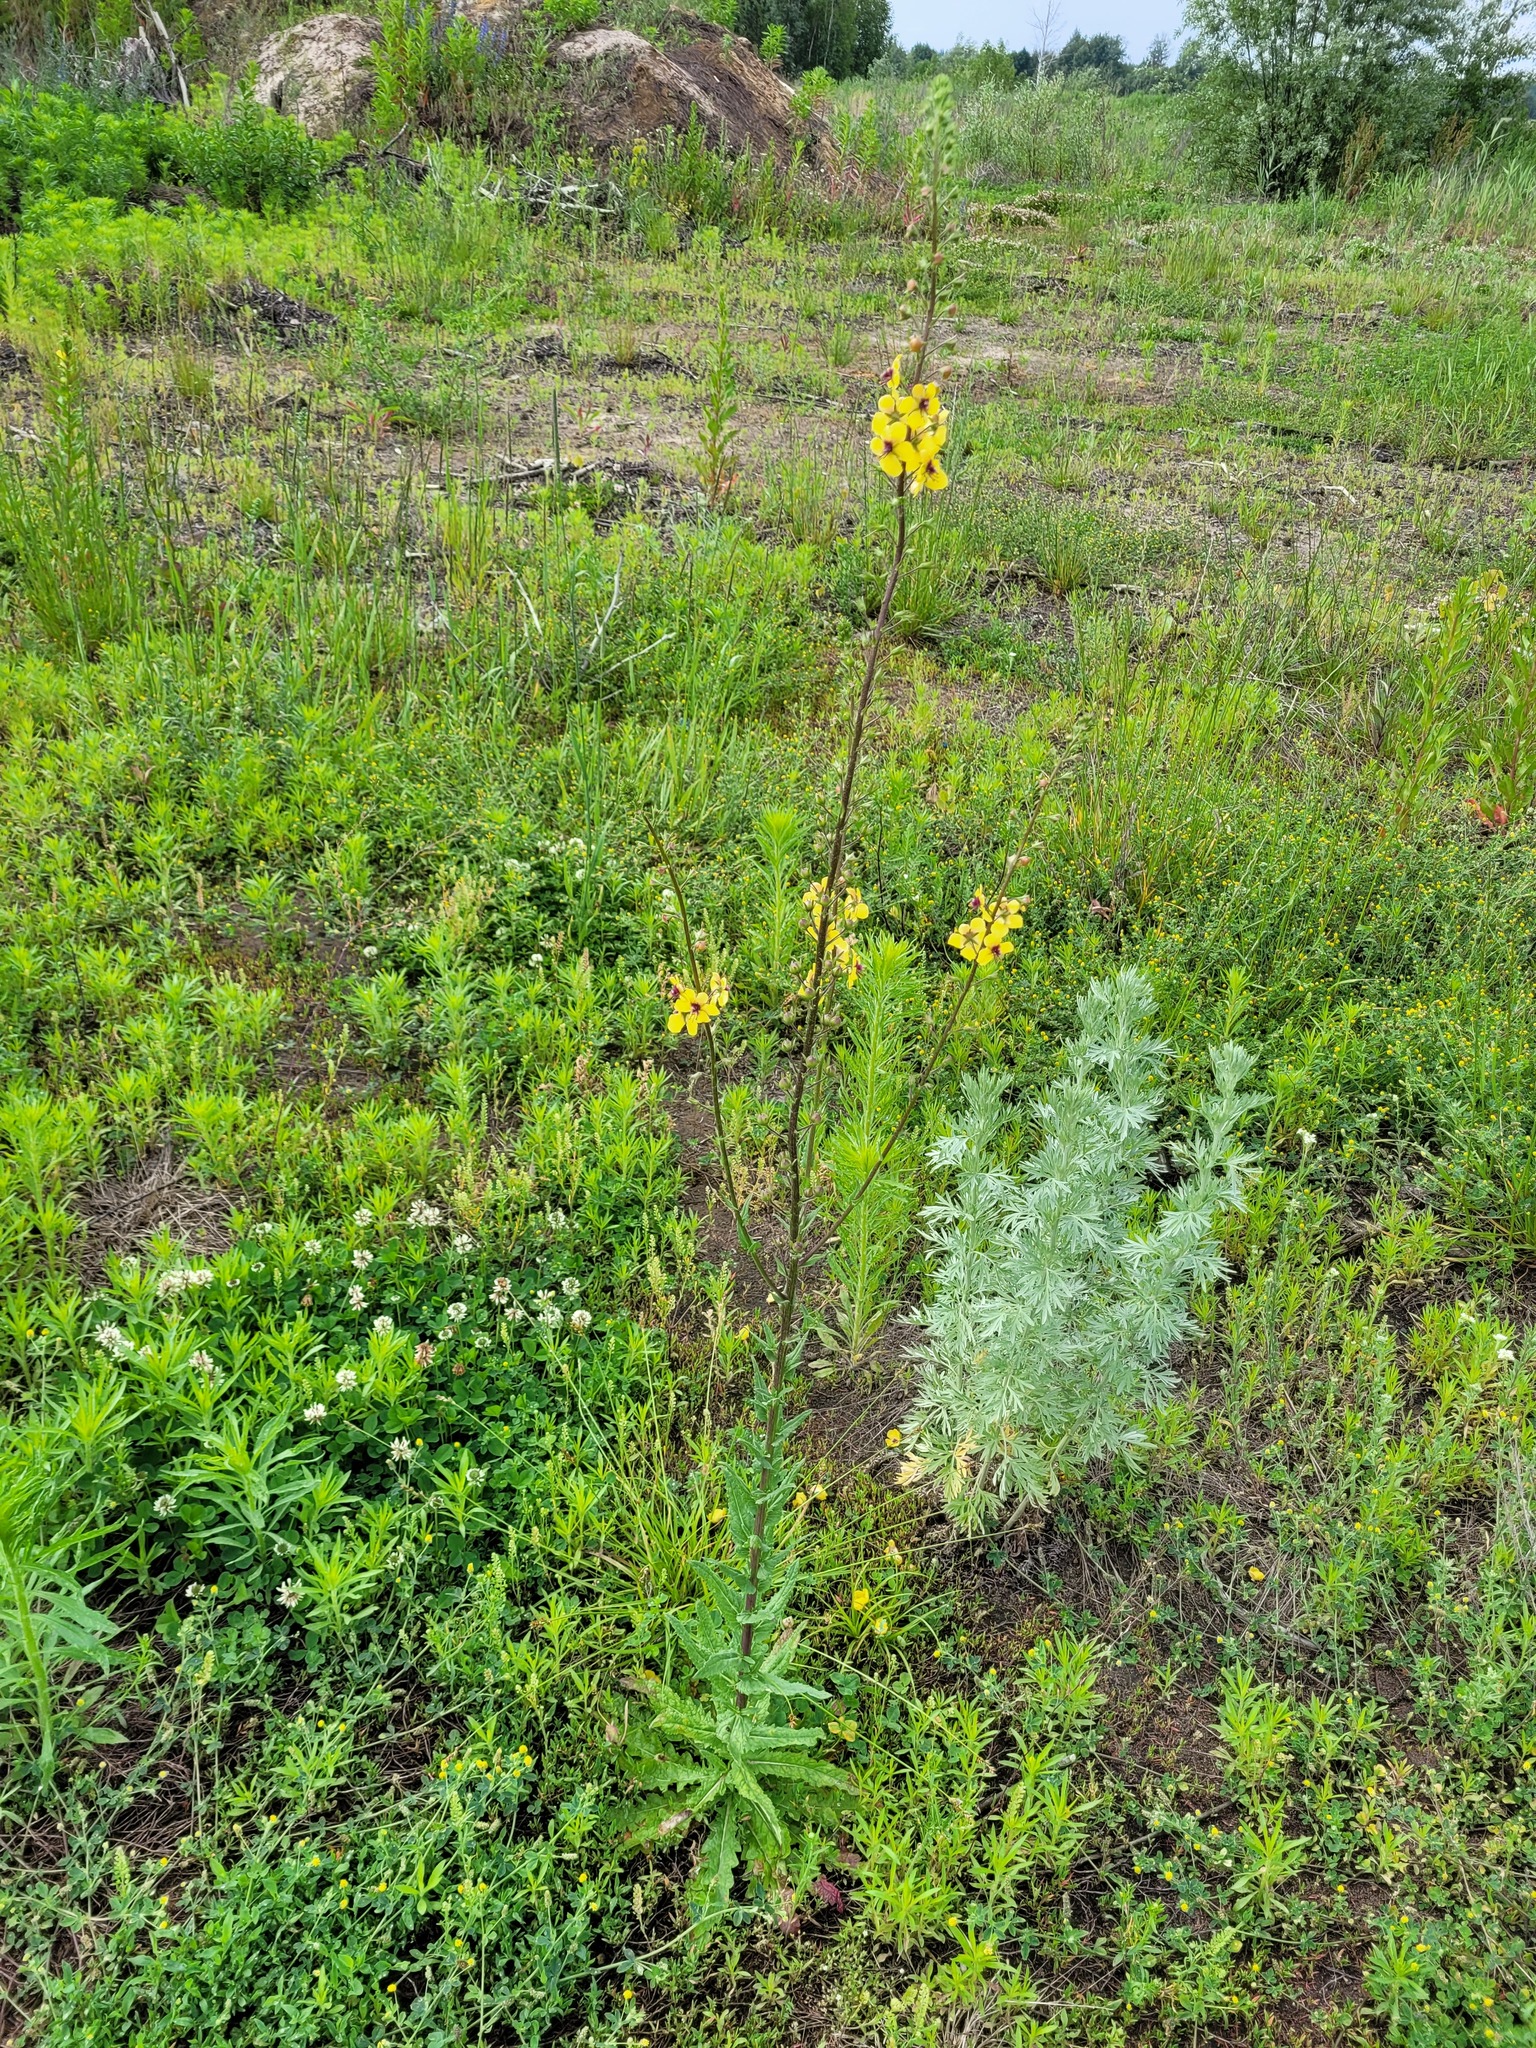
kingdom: Plantae
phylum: Tracheophyta
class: Magnoliopsida
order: Lamiales
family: Scrophulariaceae
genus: Verbascum
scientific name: Verbascum blattaria
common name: Moth mullein
